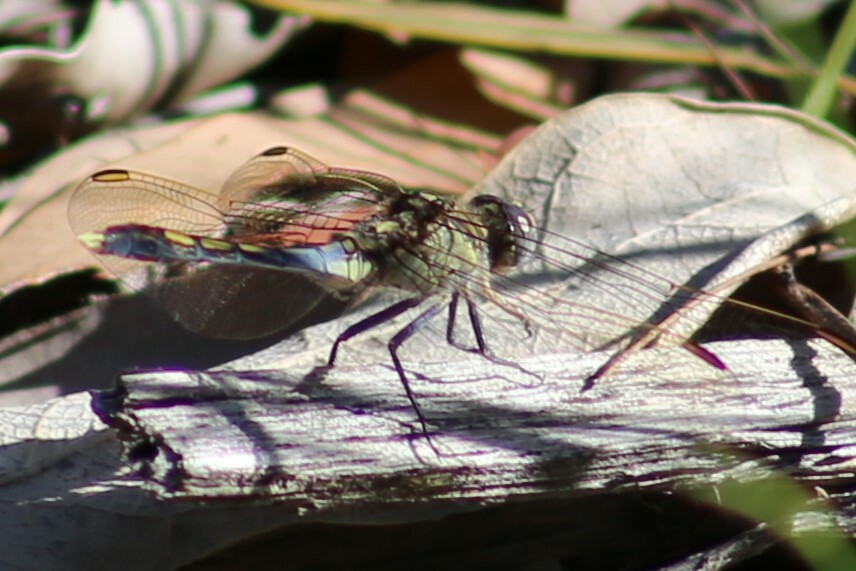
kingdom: Animalia
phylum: Arthropoda
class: Insecta
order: Odonata
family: Libellulidae
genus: Orthetrum
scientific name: Orthetrum caledonicum
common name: Blue skimmer
